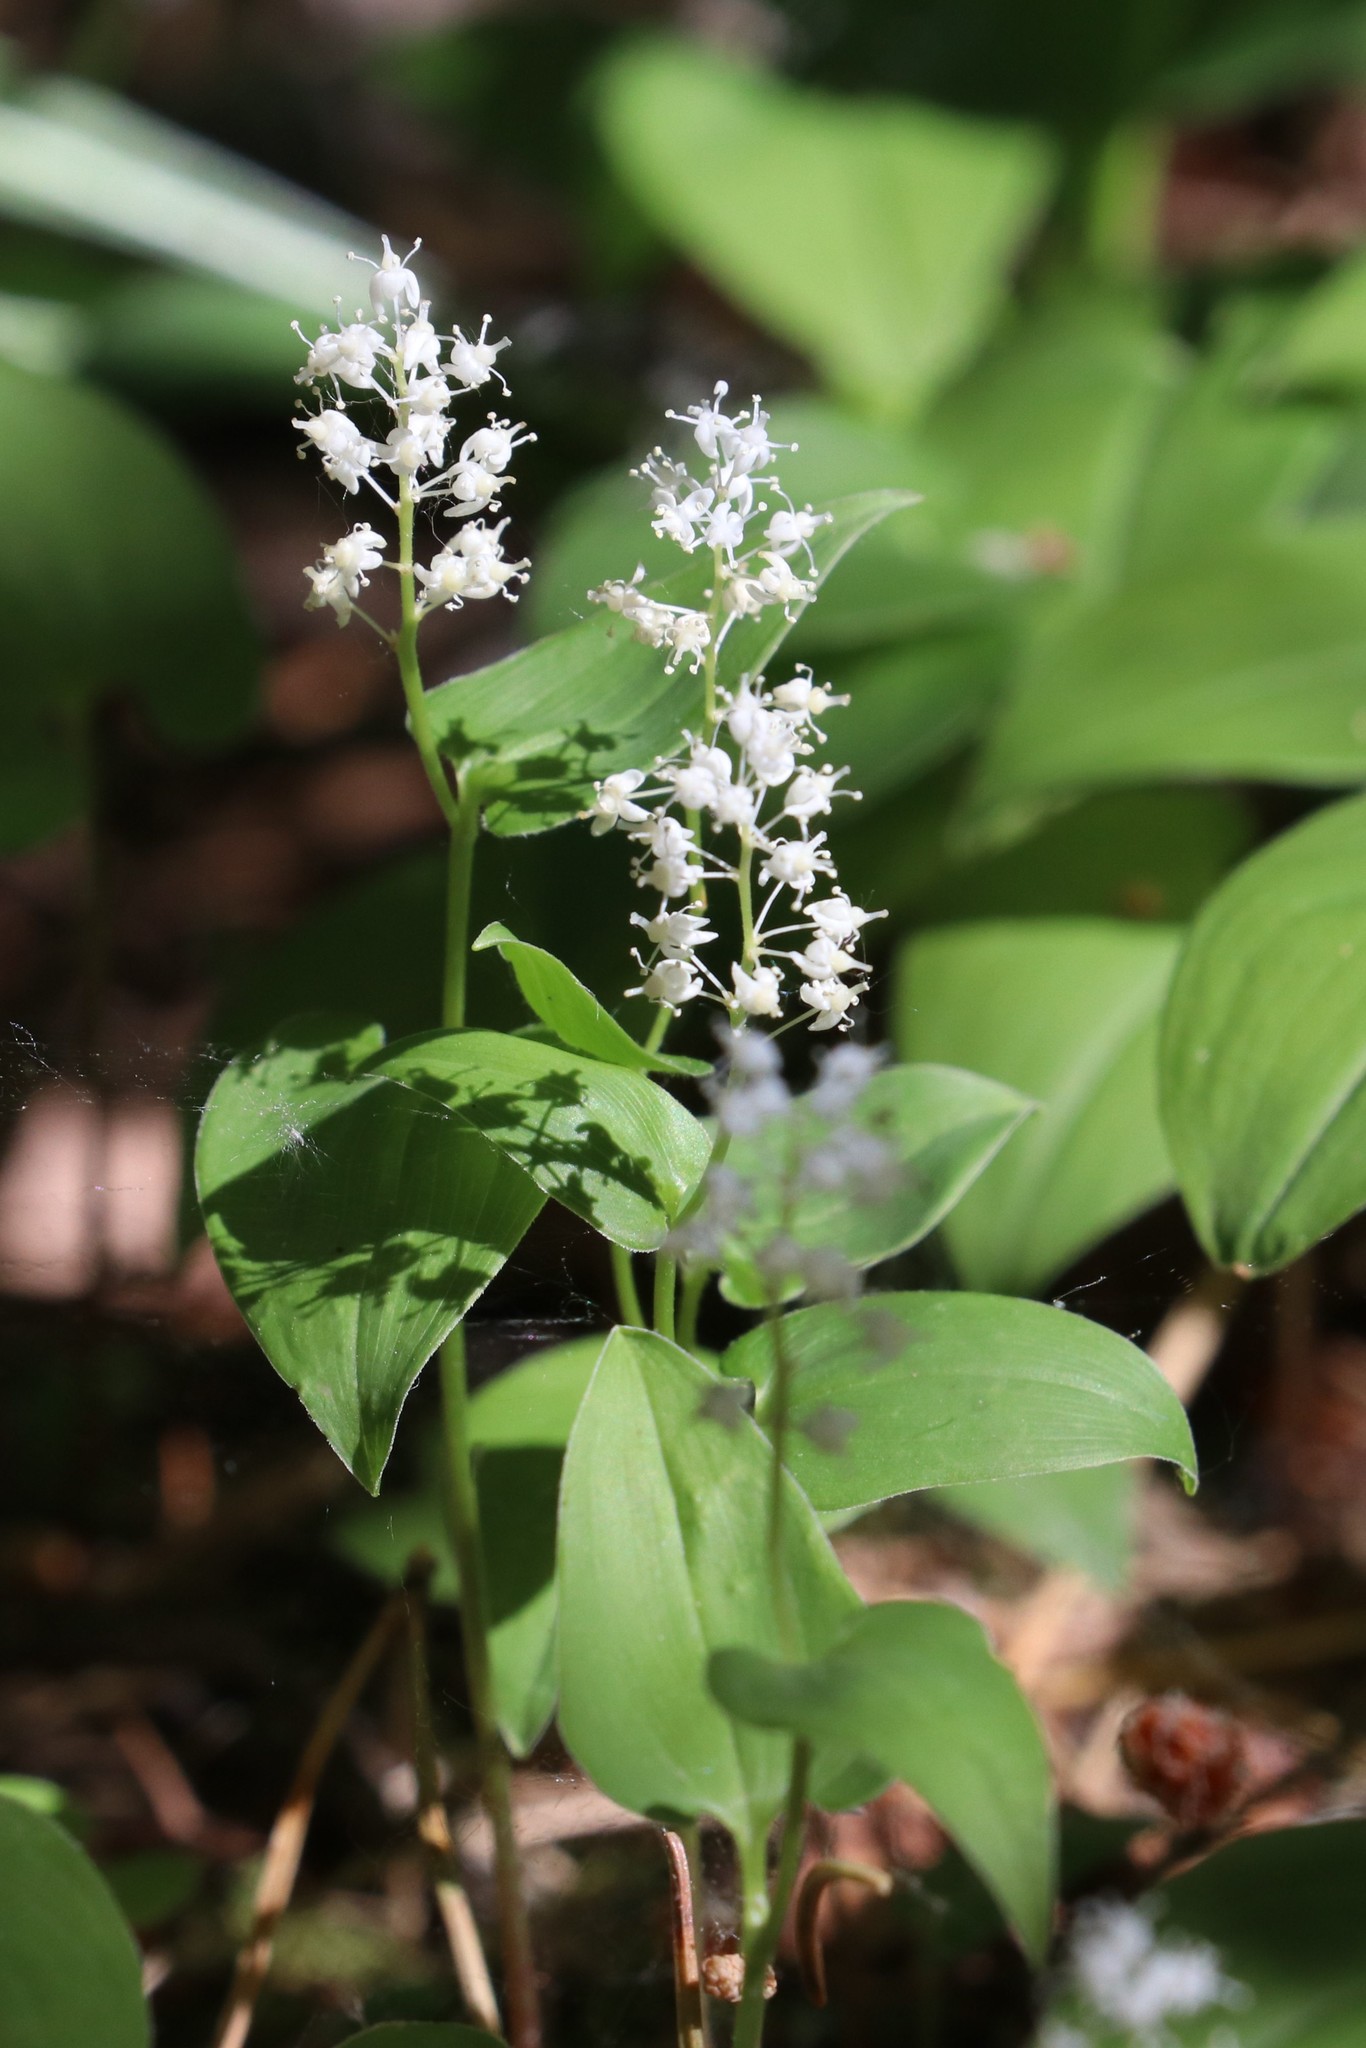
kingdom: Plantae
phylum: Tracheophyta
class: Liliopsida
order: Asparagales
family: Asparagaceae
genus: Maianthemum
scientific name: Maianthemum bifolium
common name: May lily
